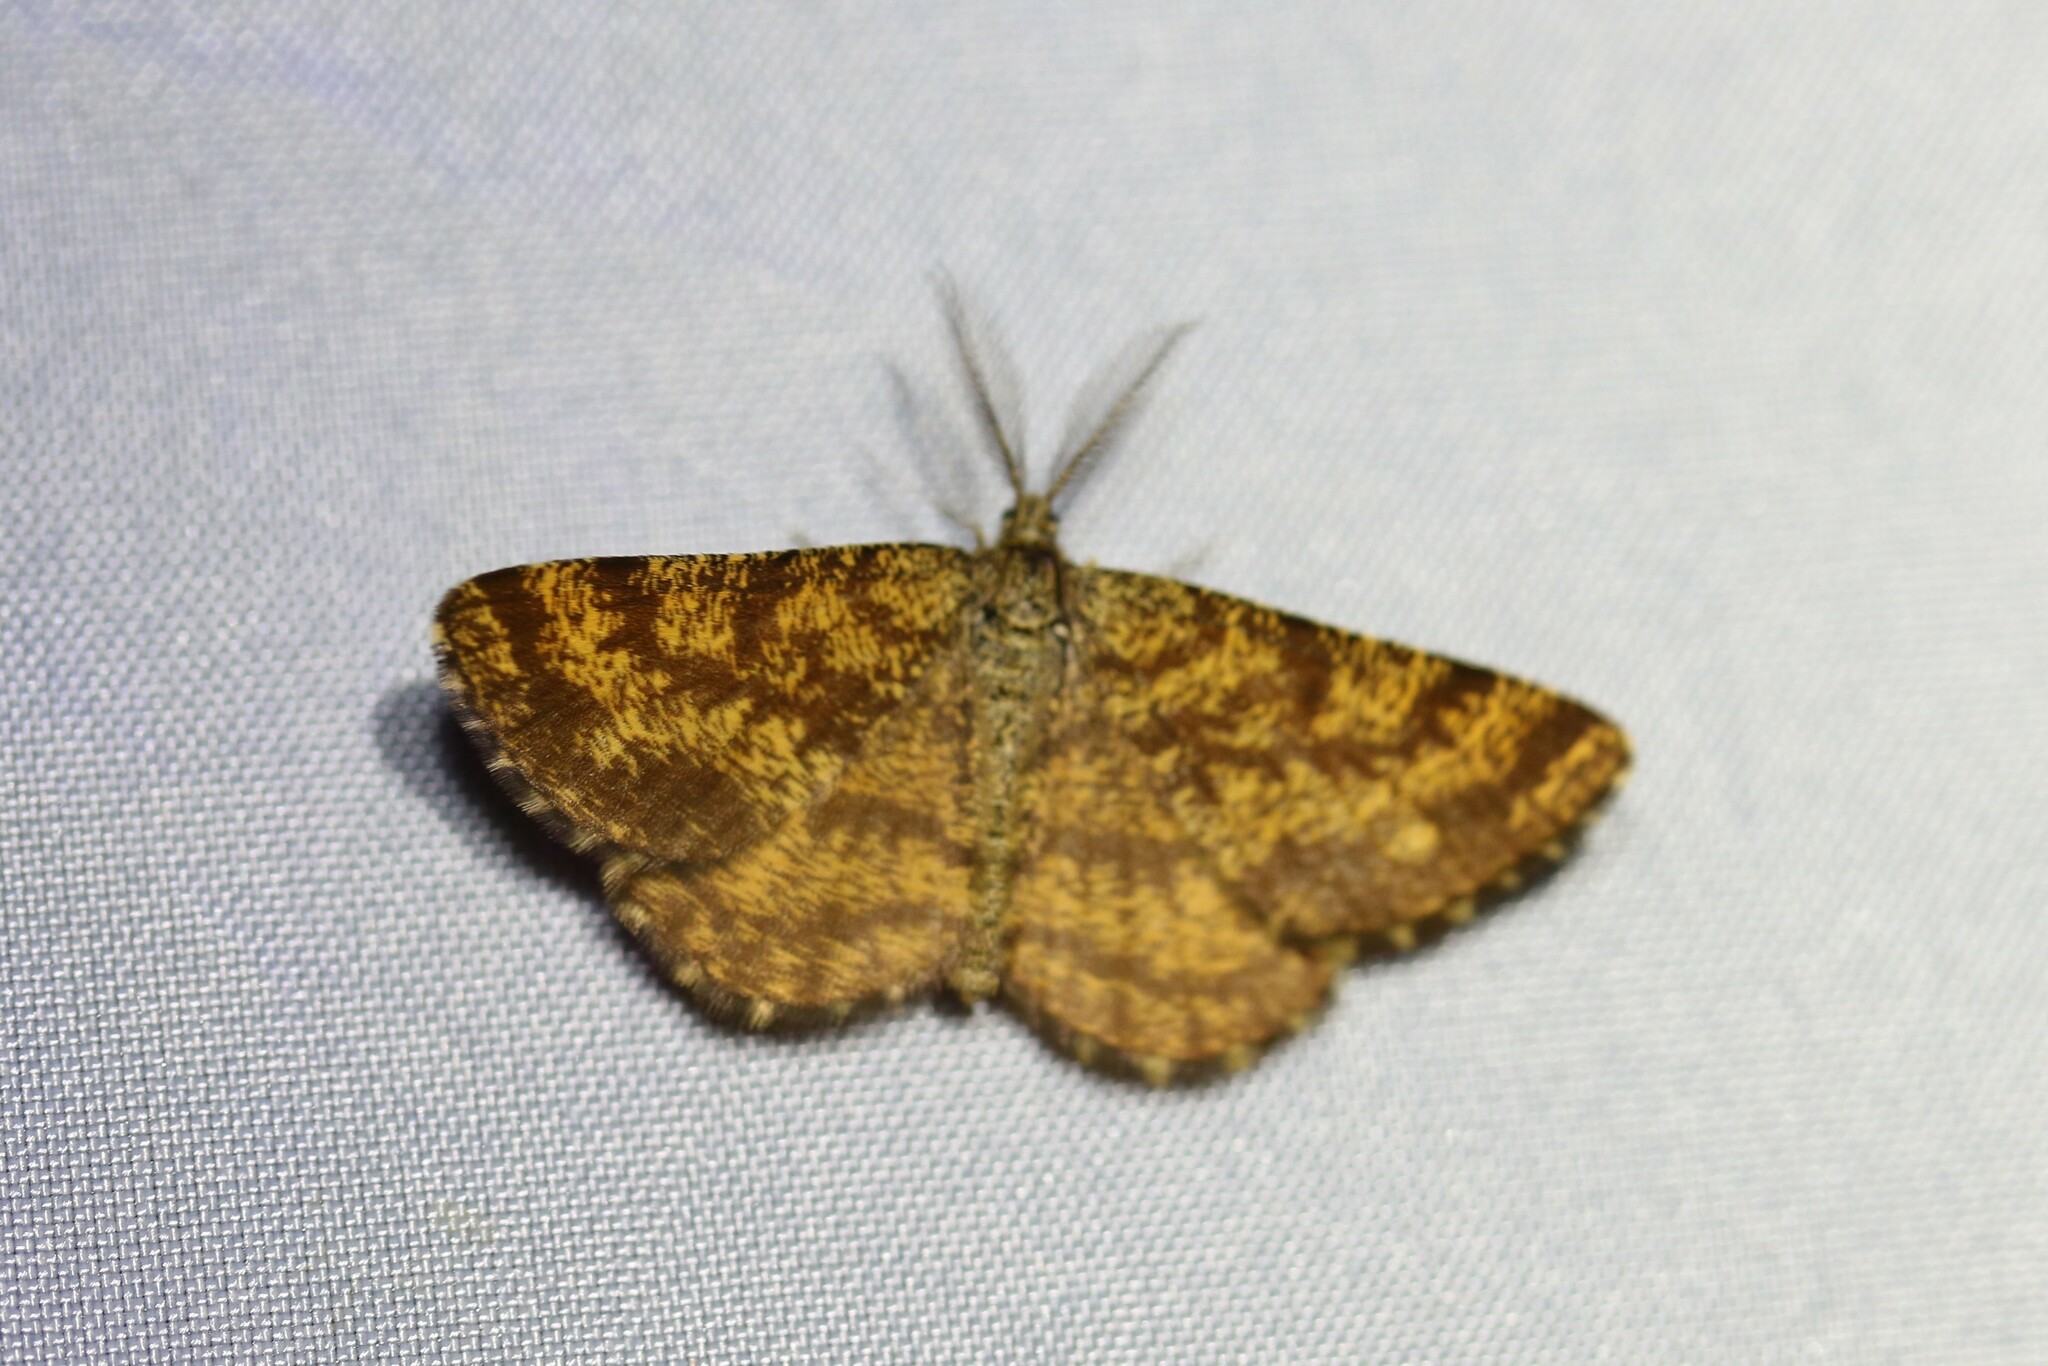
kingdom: Animalia
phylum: Arthropoda
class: Insecta
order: Lepidoptera
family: Geometridae
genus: Ematurga
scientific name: Ematurga atomaria
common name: Common heath
